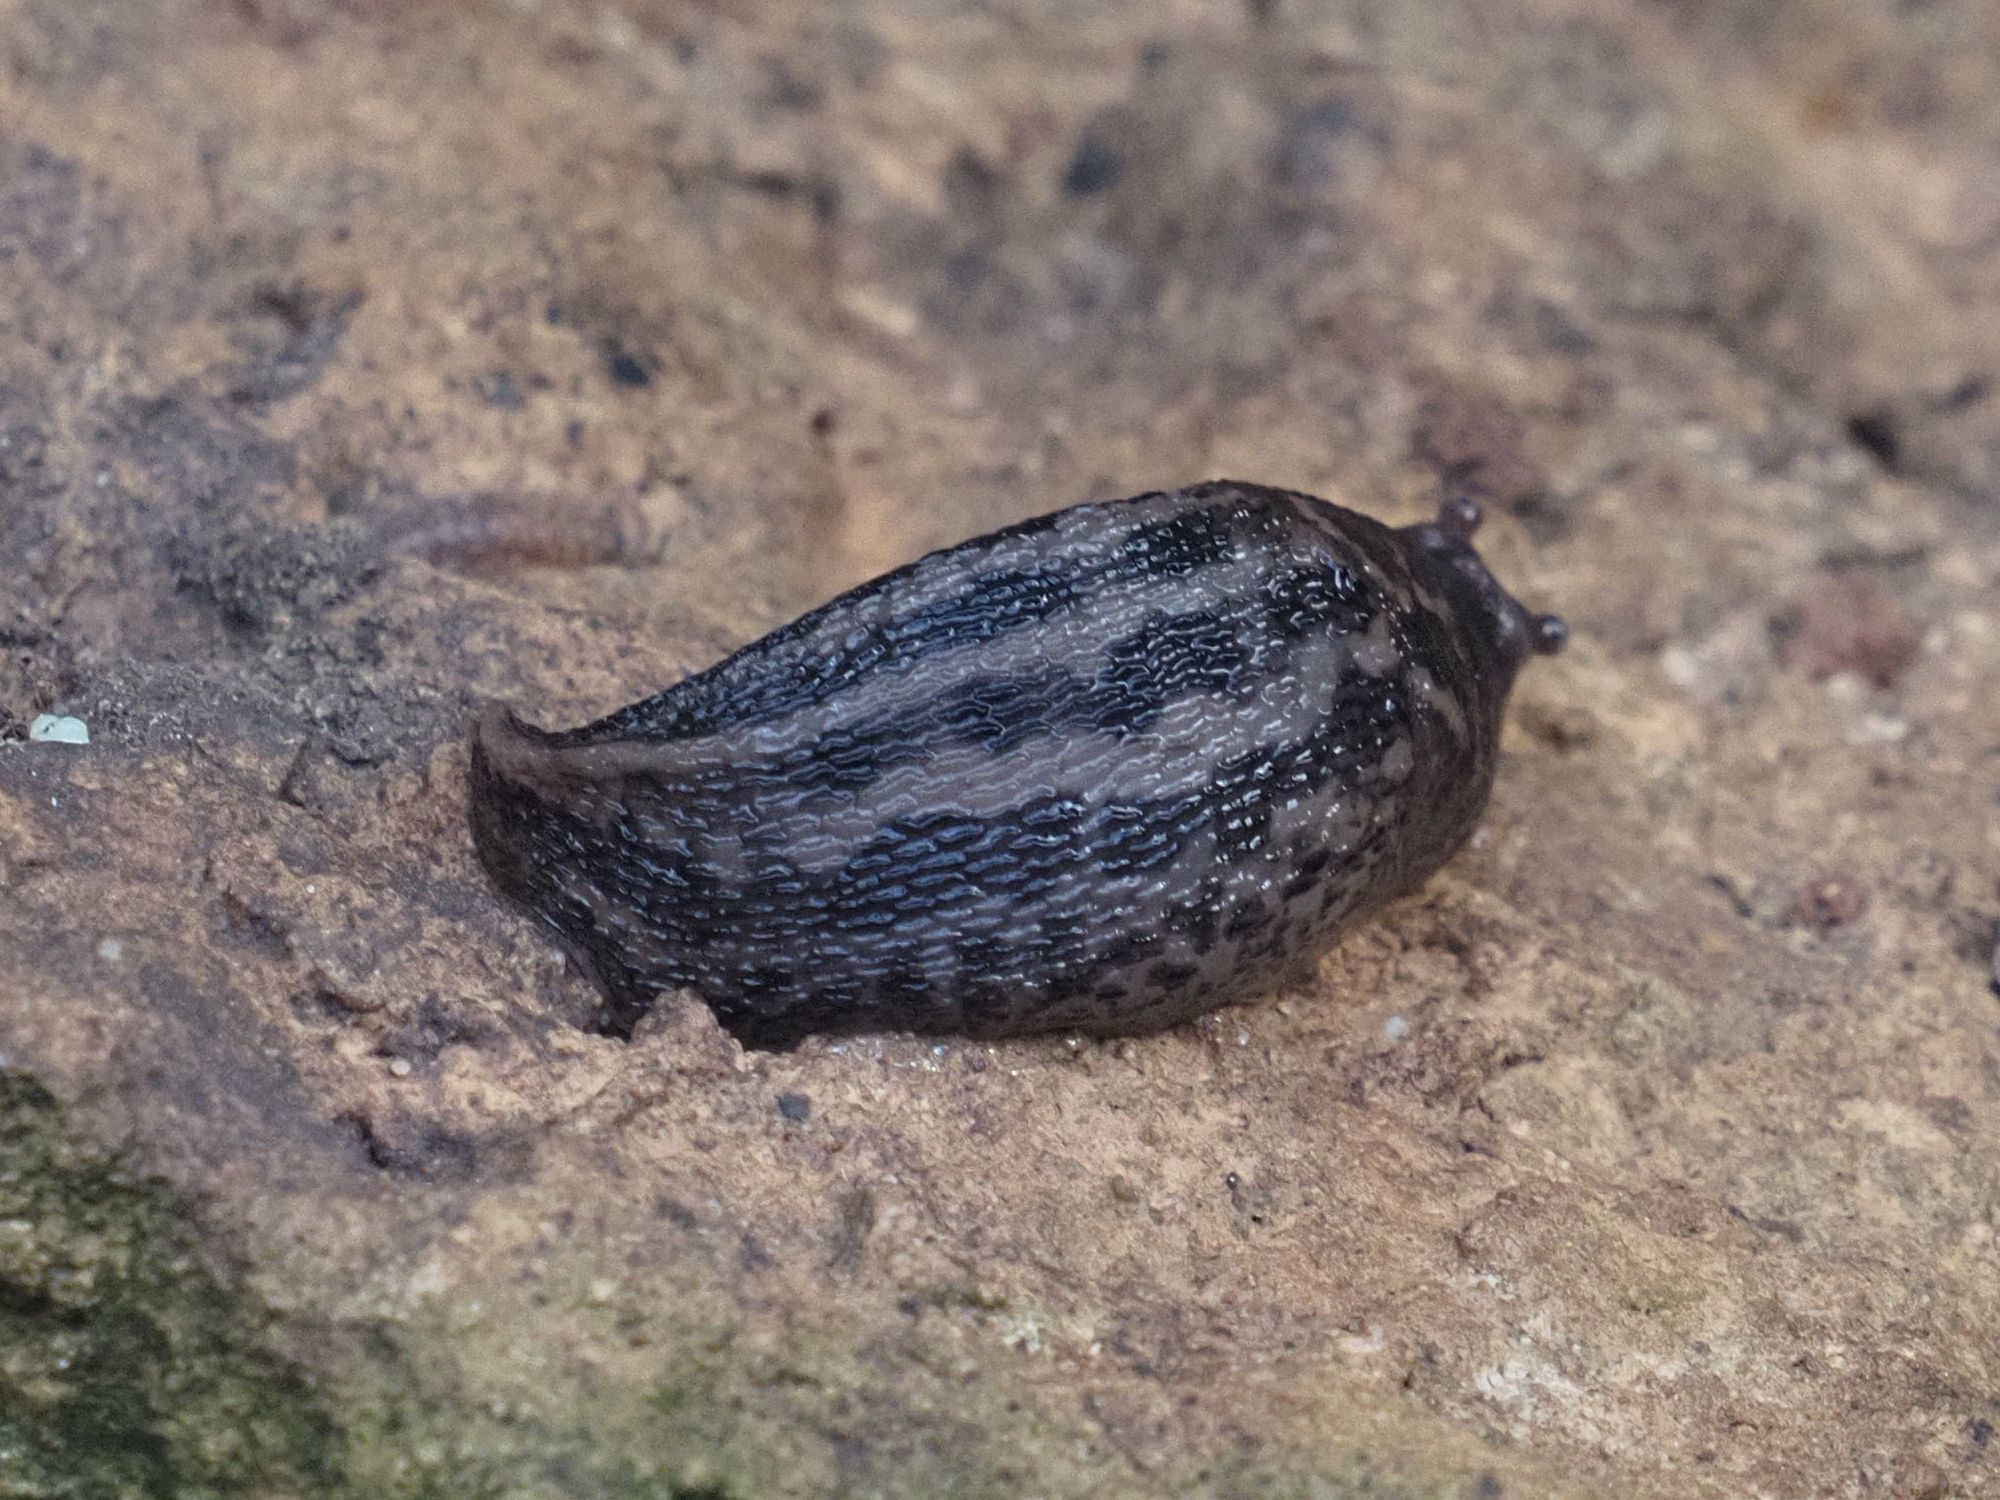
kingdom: Animalia
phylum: Mollusca
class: Gastropoda
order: Stylommatophora
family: Limacidae
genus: Limax
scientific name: Limax maximus
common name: Great grey slug
